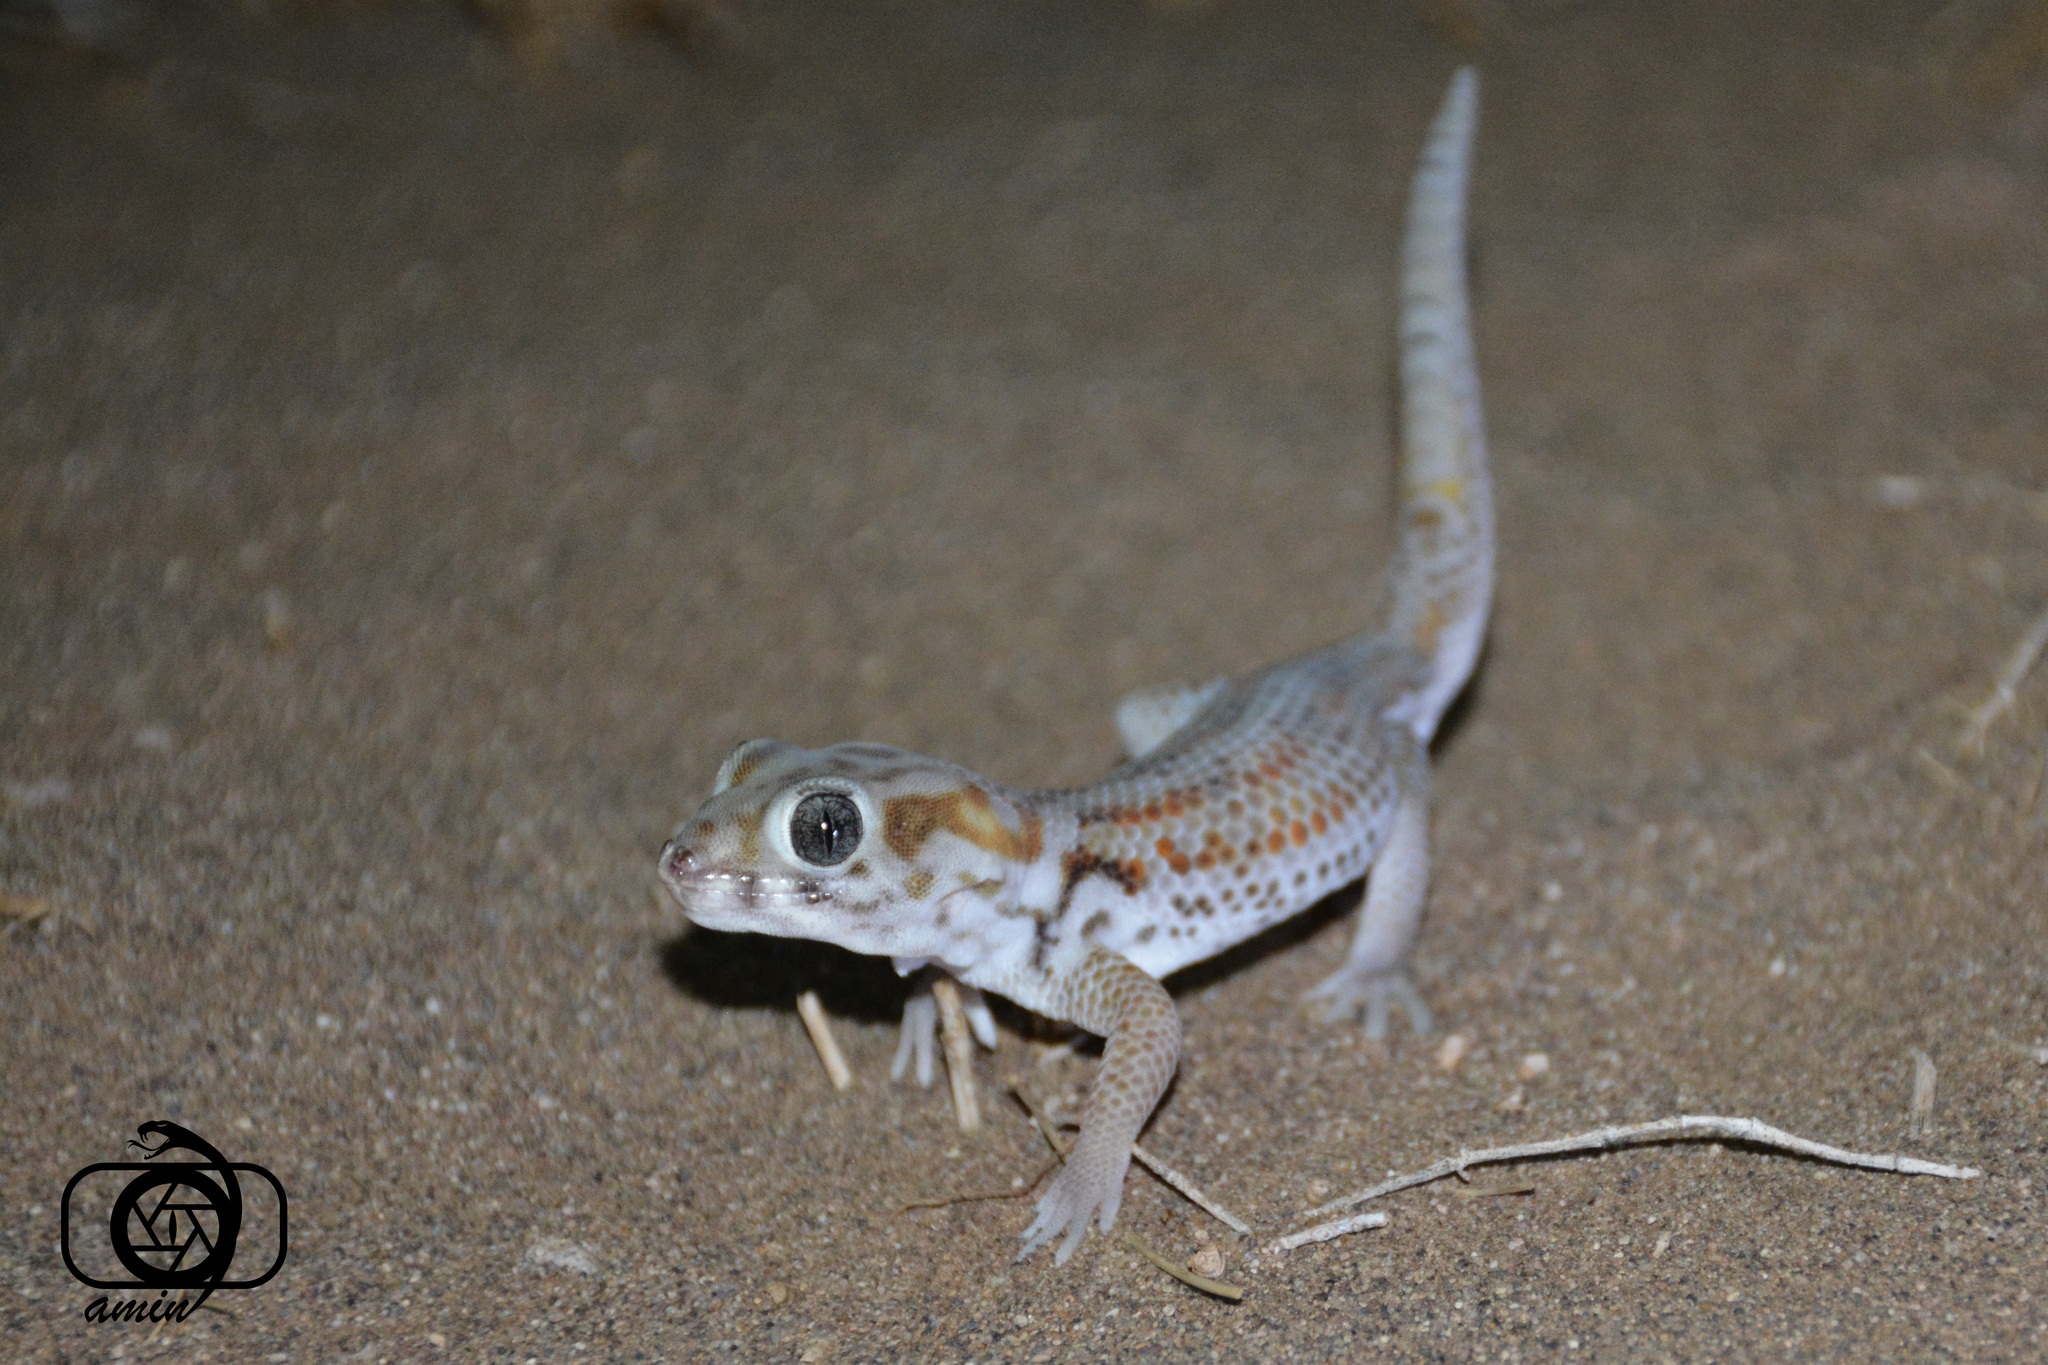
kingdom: Animalia
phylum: Chordata
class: Squamata
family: Sphaerodactylidae
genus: Teratoscincus
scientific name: Teratoscincus keyserlingii
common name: Frog-eyed gecko
